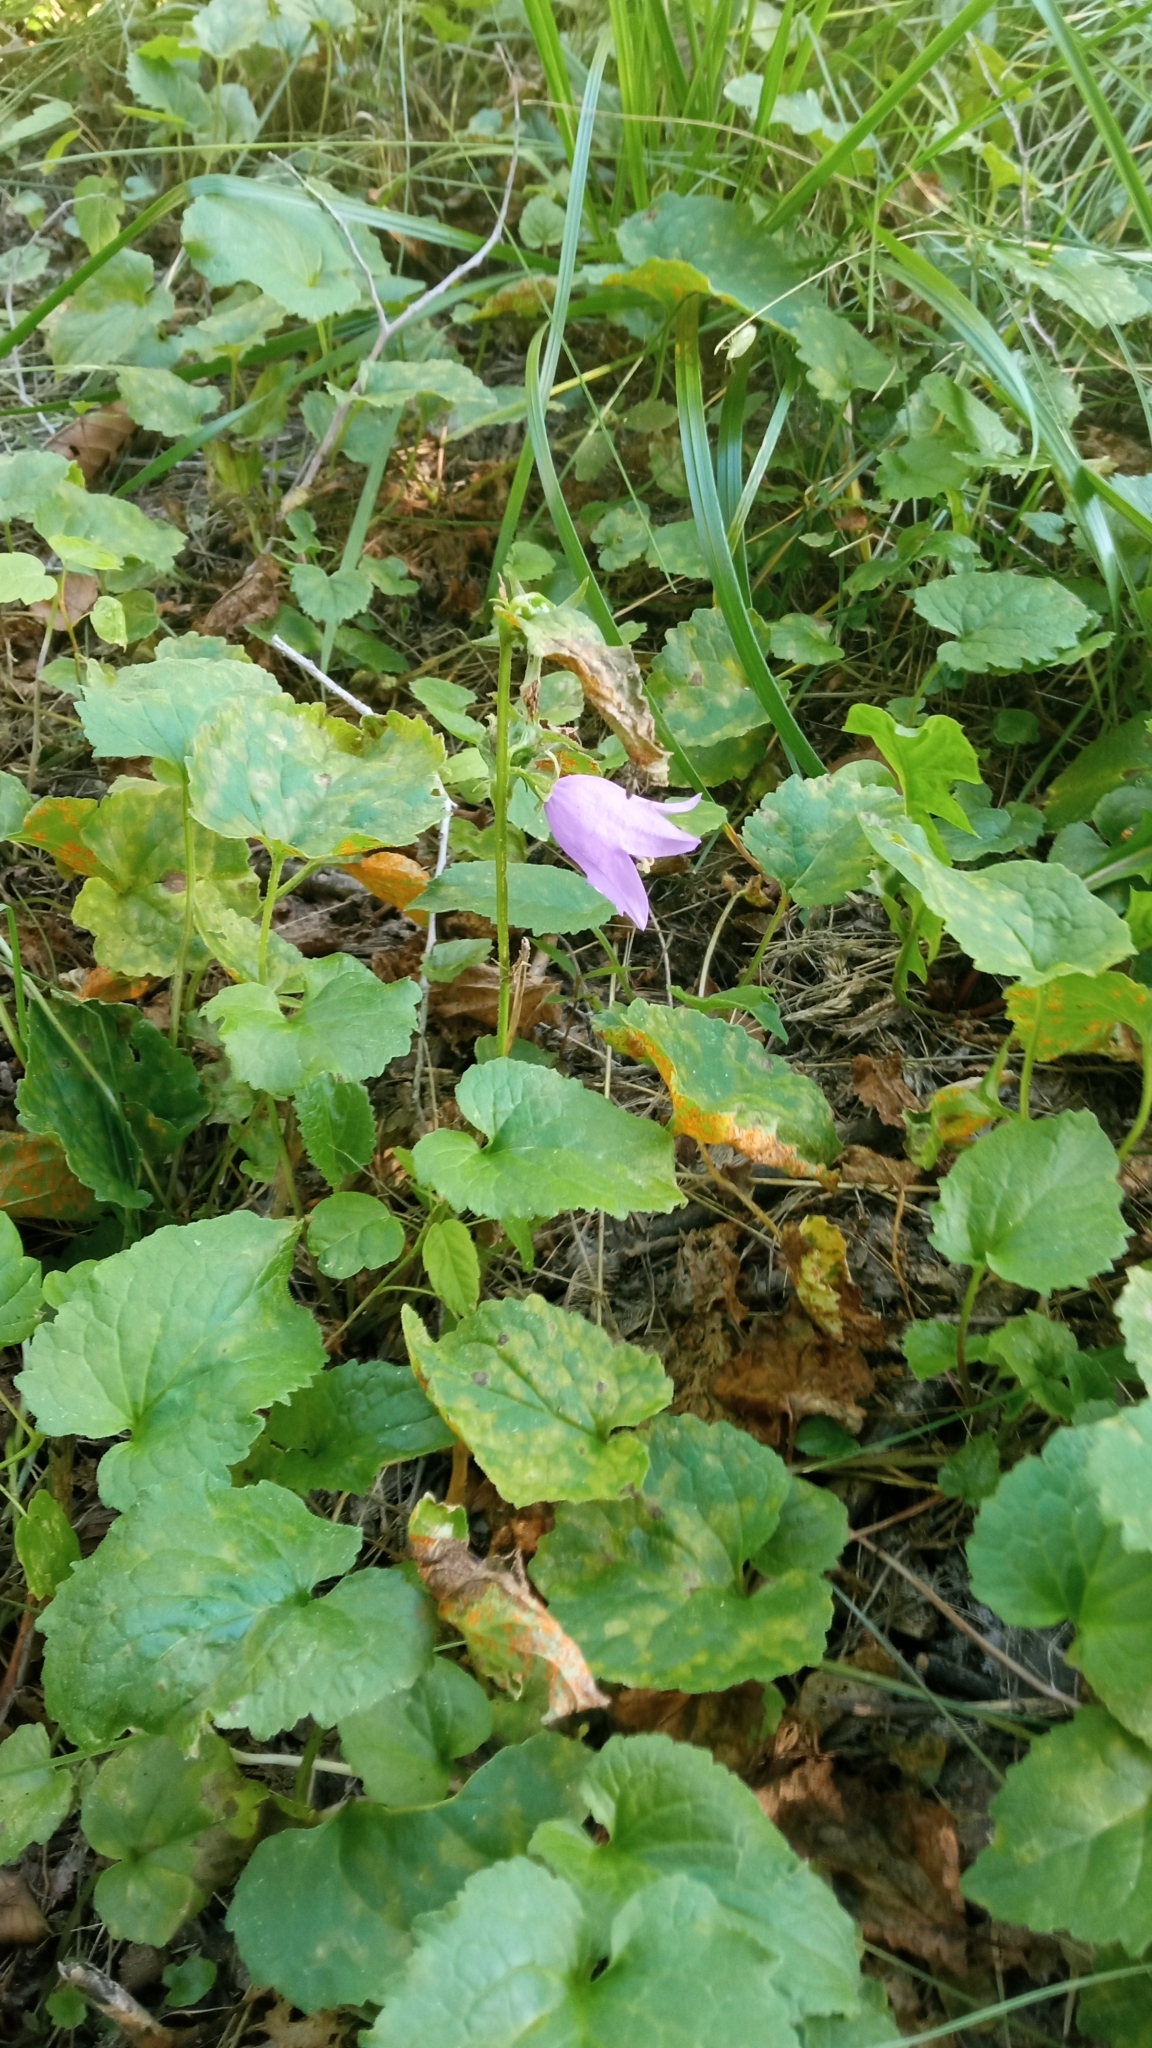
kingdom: Plantae
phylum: Tracheophyta
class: Magnoliopsida
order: Asterales
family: Campanulaceae
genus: Campanula
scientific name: Campanula rapunculoides
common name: Creeping bellflower
